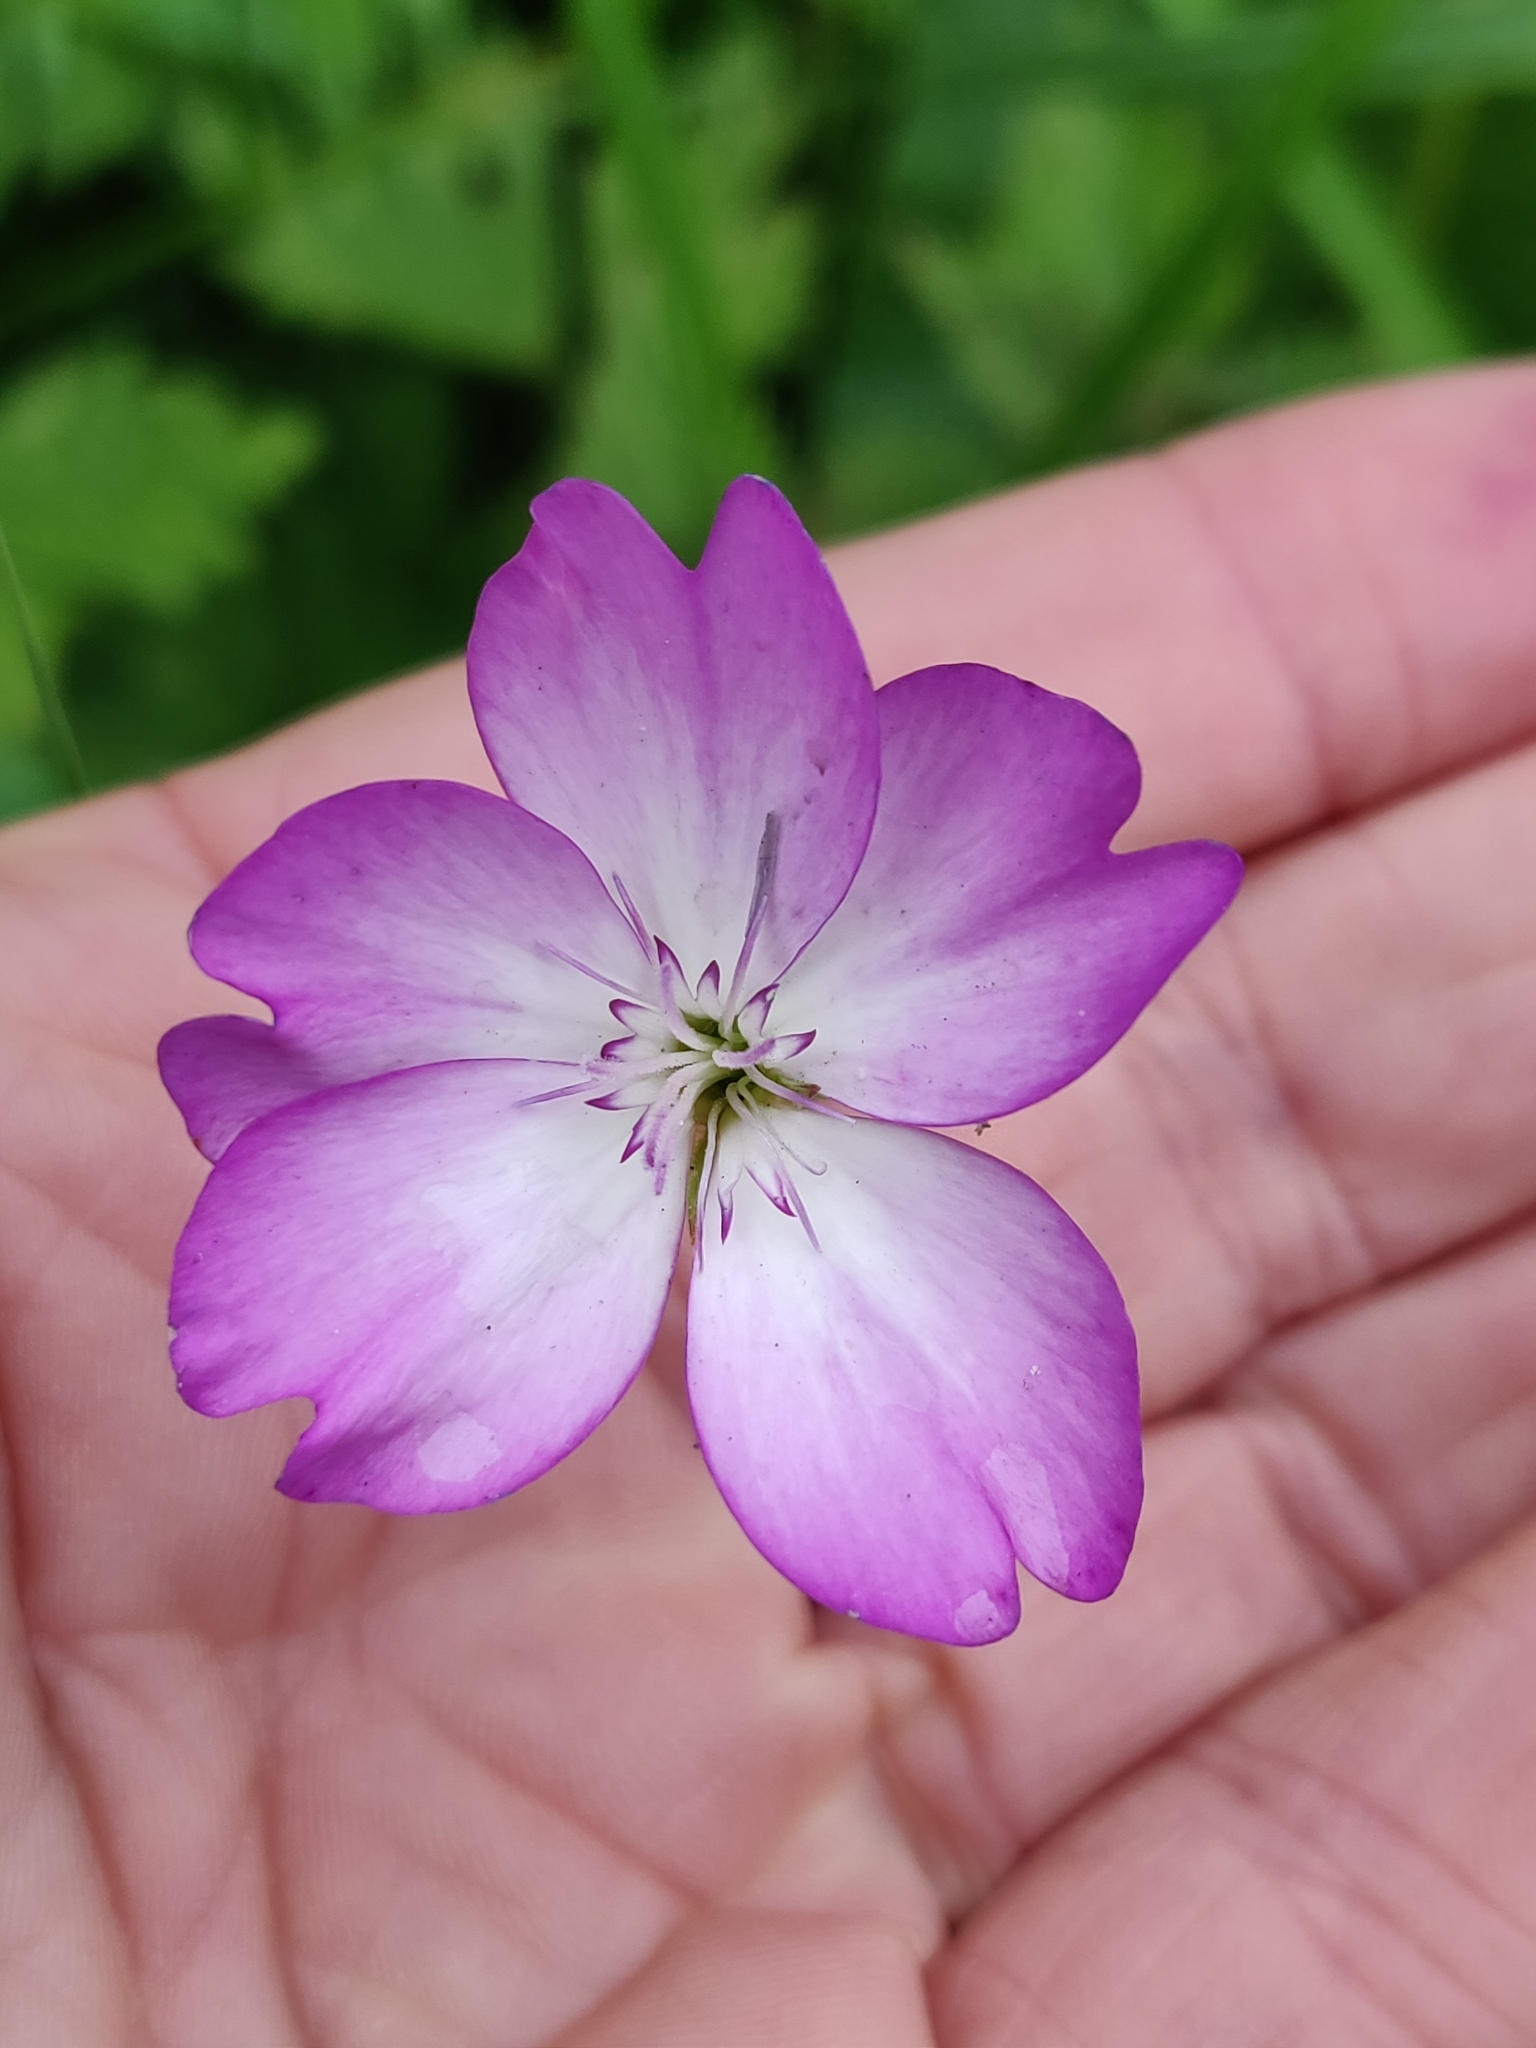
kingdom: Plantae
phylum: Tracheophyta
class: Magnoliopsida
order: Caryophyllales
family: Caryophyllaceae
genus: Eudianthe
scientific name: Eudianthe coeli-rosa
